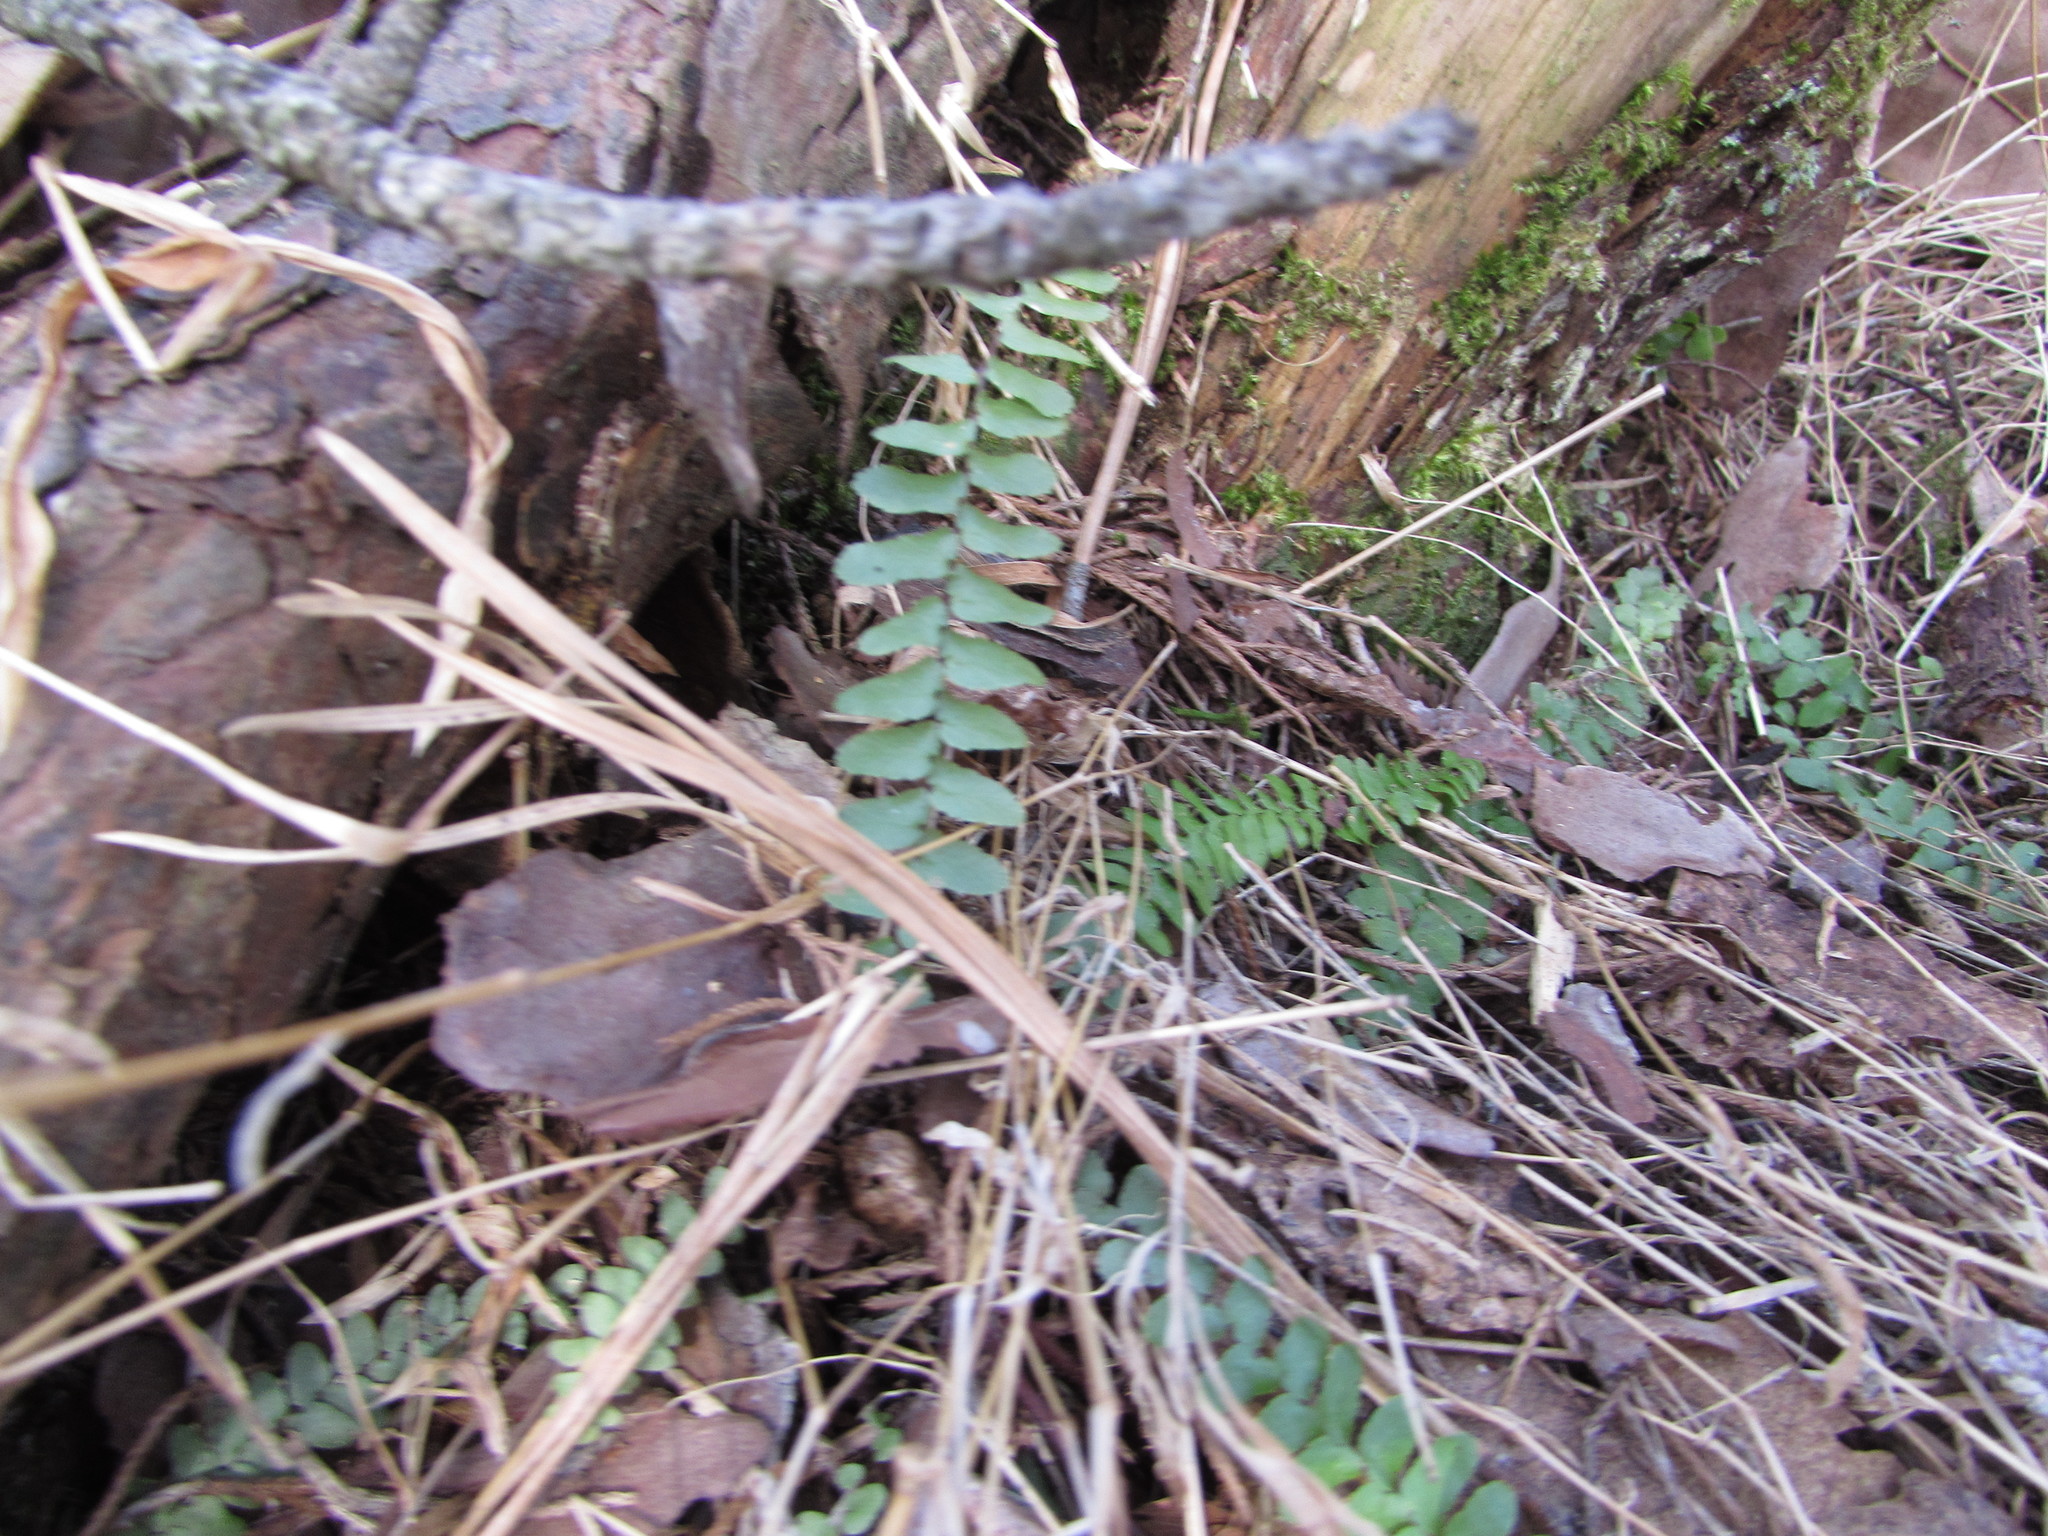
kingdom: Plantae
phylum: Tracheophyta
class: Polypodiopsida
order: Polypodiales
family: Aspleniaceae
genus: Asplenium
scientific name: Asplenium platyneuron
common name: Ebony spleenwort
